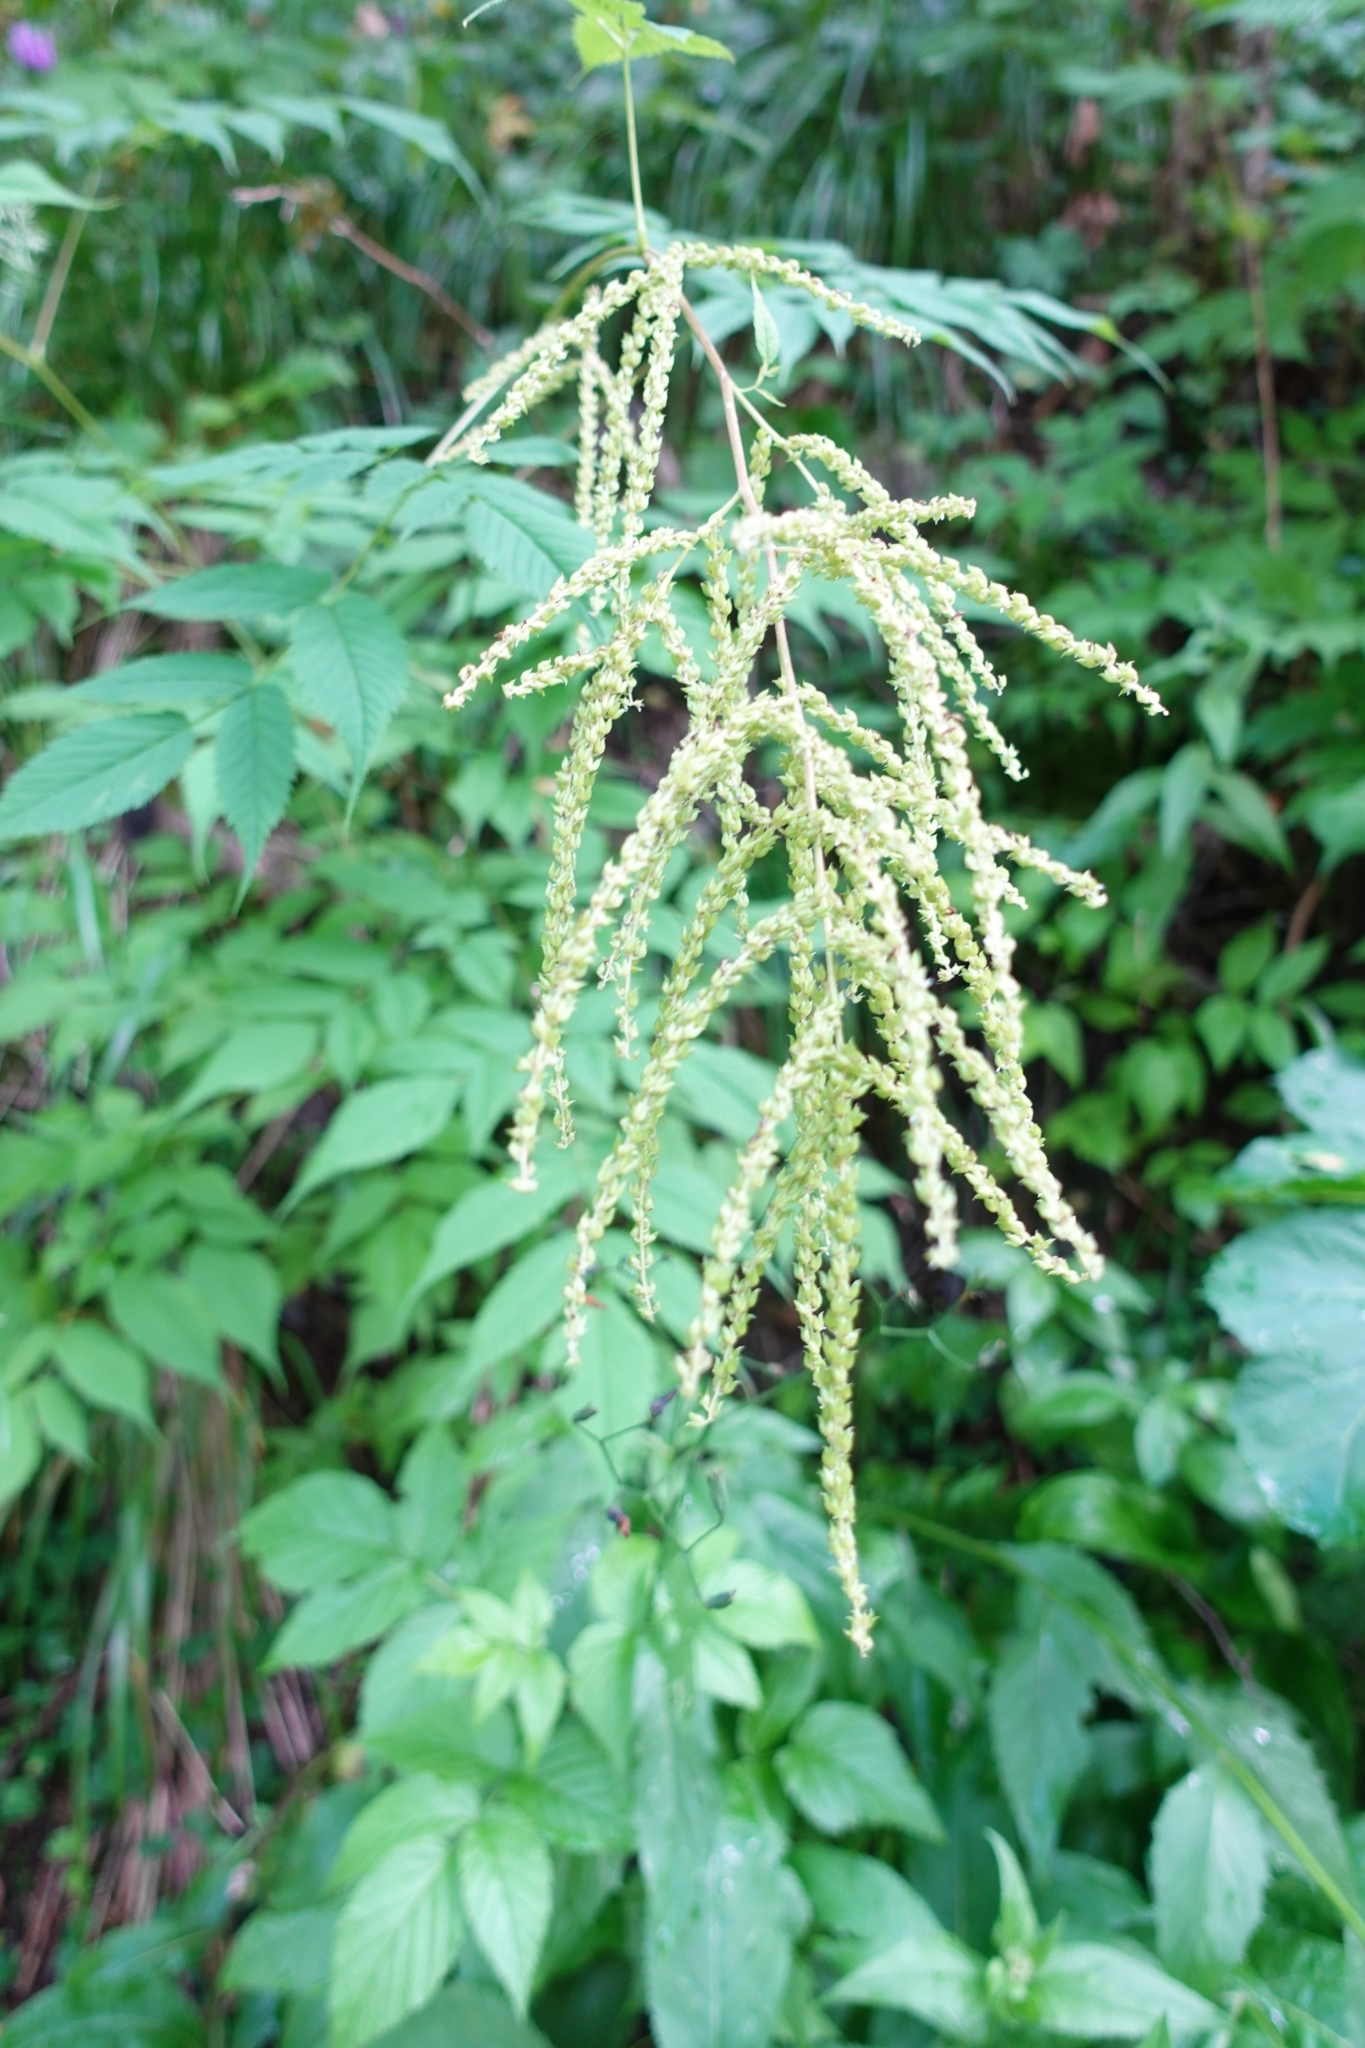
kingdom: Plantae
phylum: Tracheophyta
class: Magnoliopsida
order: Rosales
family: Rosaceae
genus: Aruncus
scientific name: Aruncus dioicus
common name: Buck's-beard
